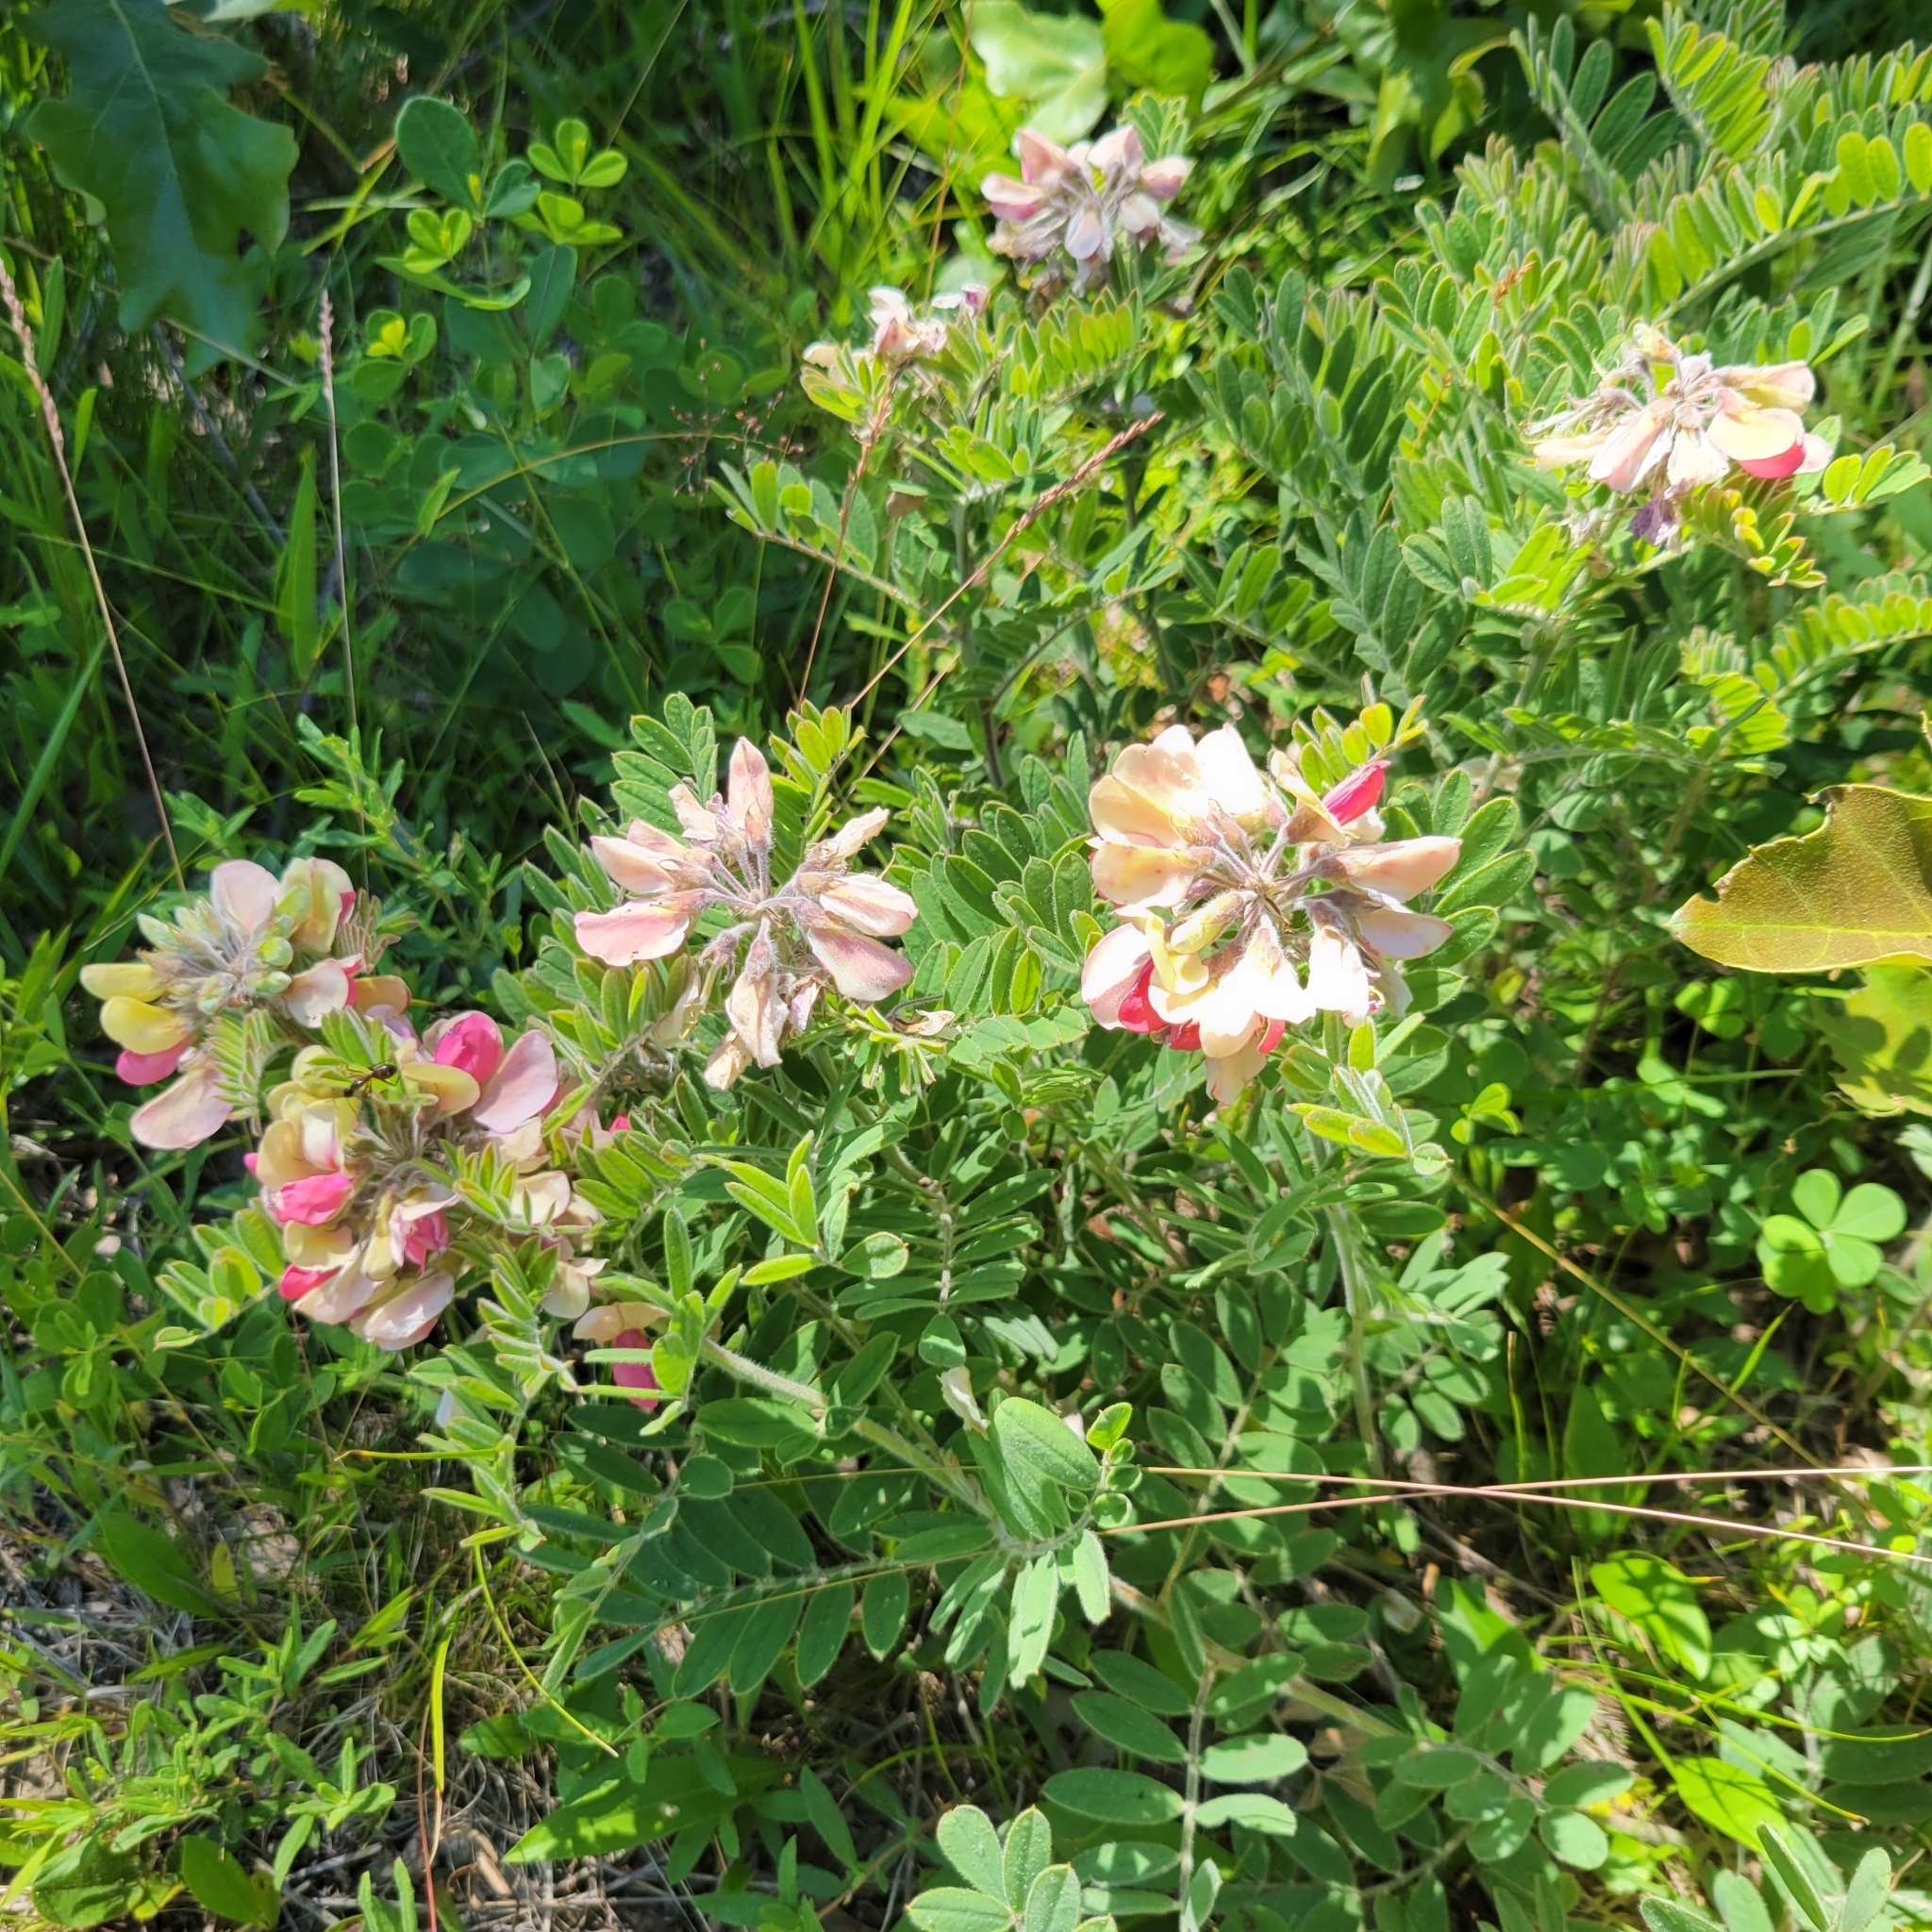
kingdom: Plantae
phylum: Tracheophyta
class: Magnoliopsida
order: Fabales
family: Fabaceae
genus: Tephrosia
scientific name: Tephrosia virginiana
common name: Rabbit-pea
